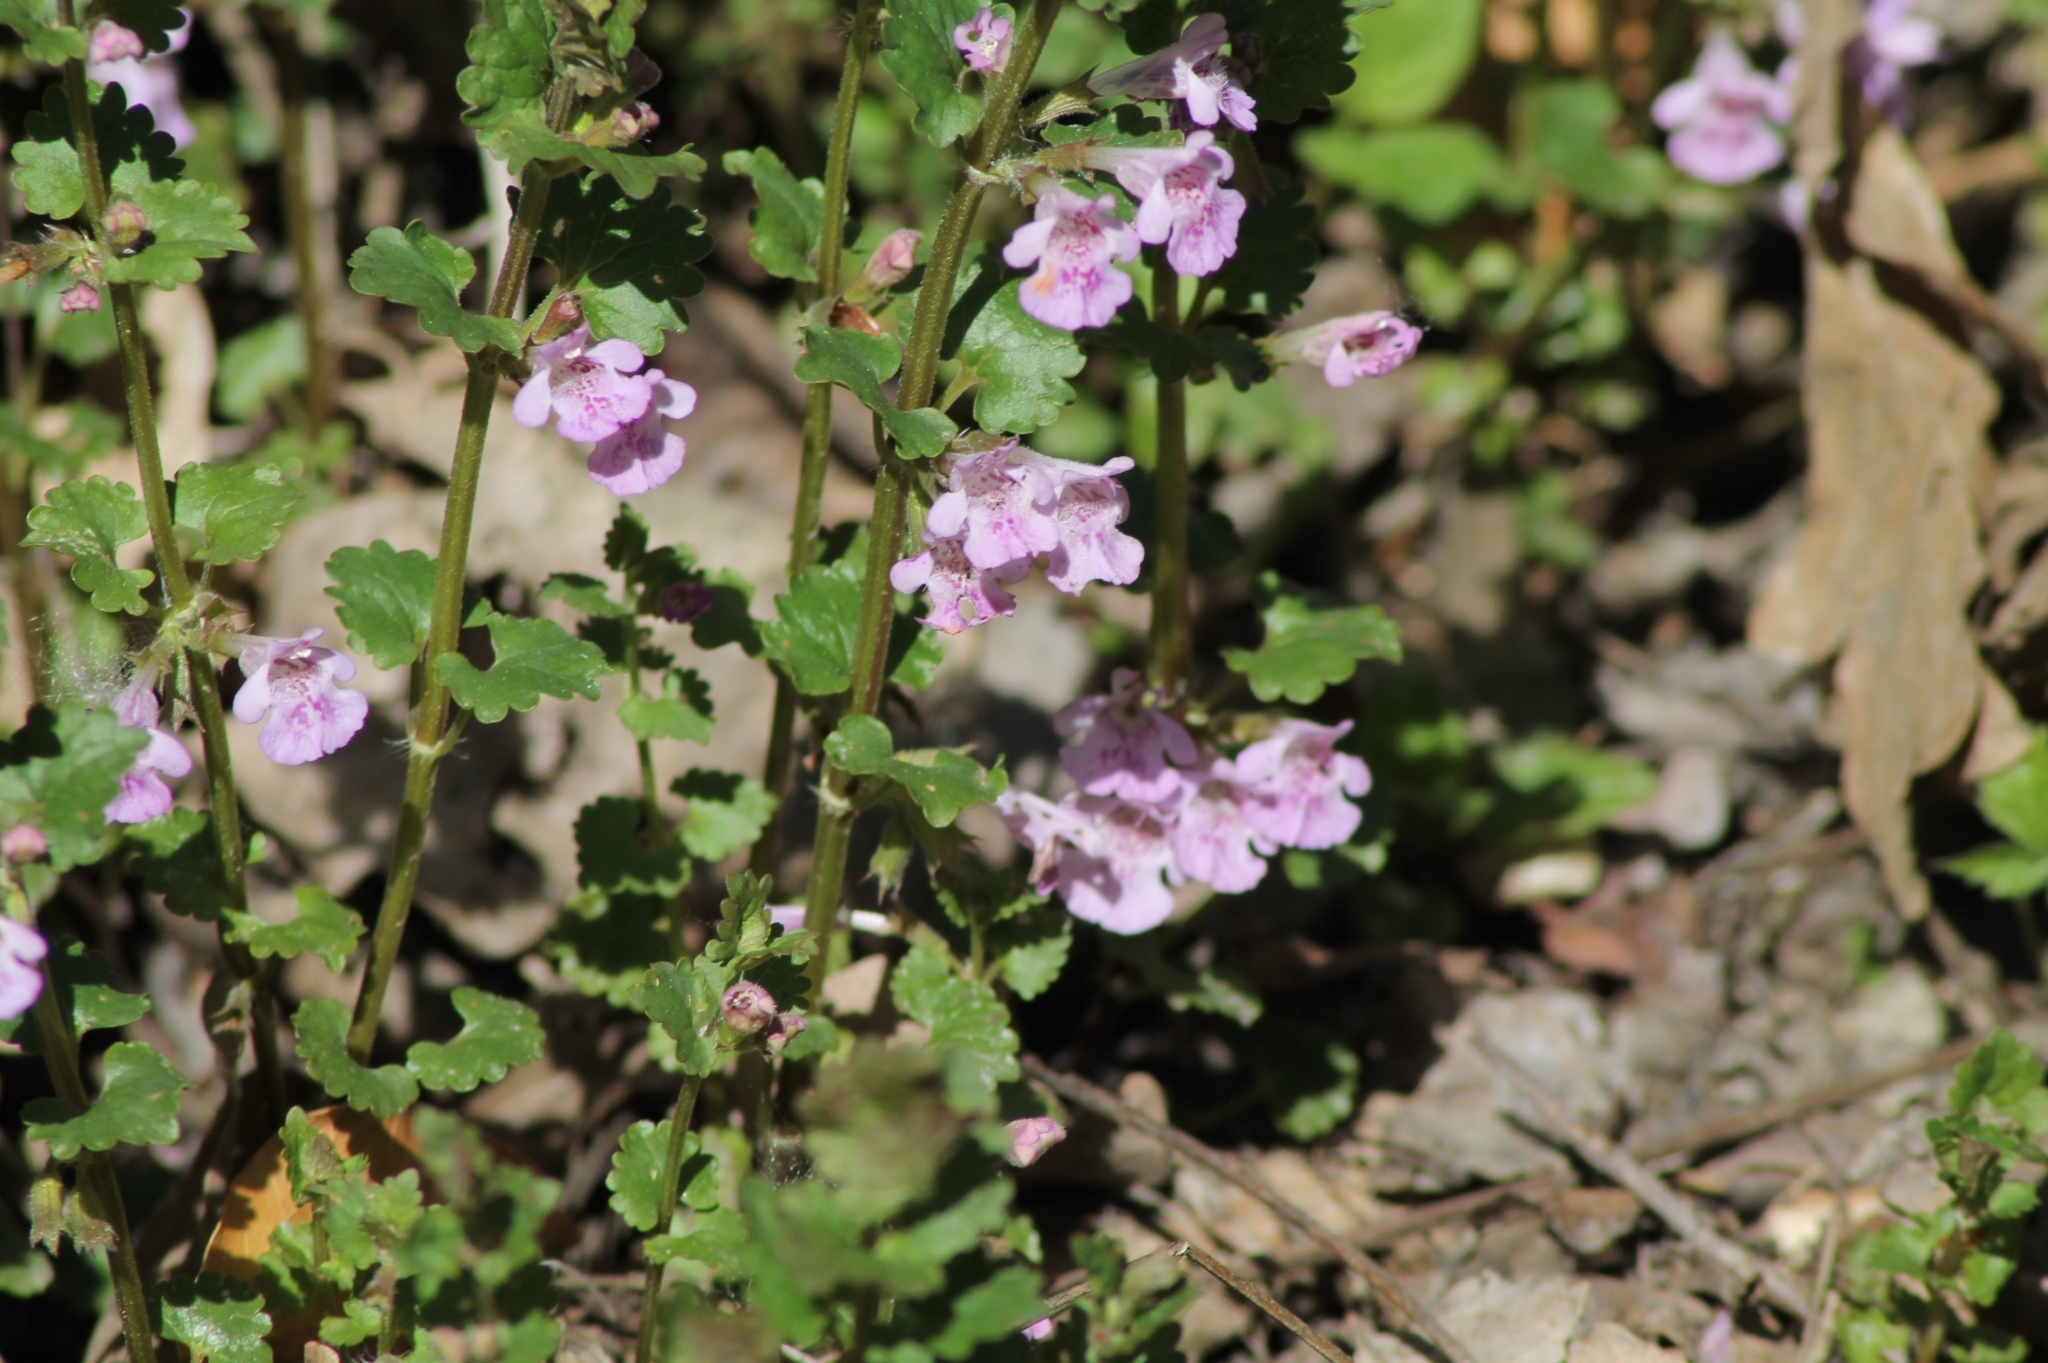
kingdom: Plantae
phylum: Tracheophyta
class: Magnoliopsida
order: Lamiales
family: Lamiaceae
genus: Glechoma
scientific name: Glechoma hederacea
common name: Ground ivy
